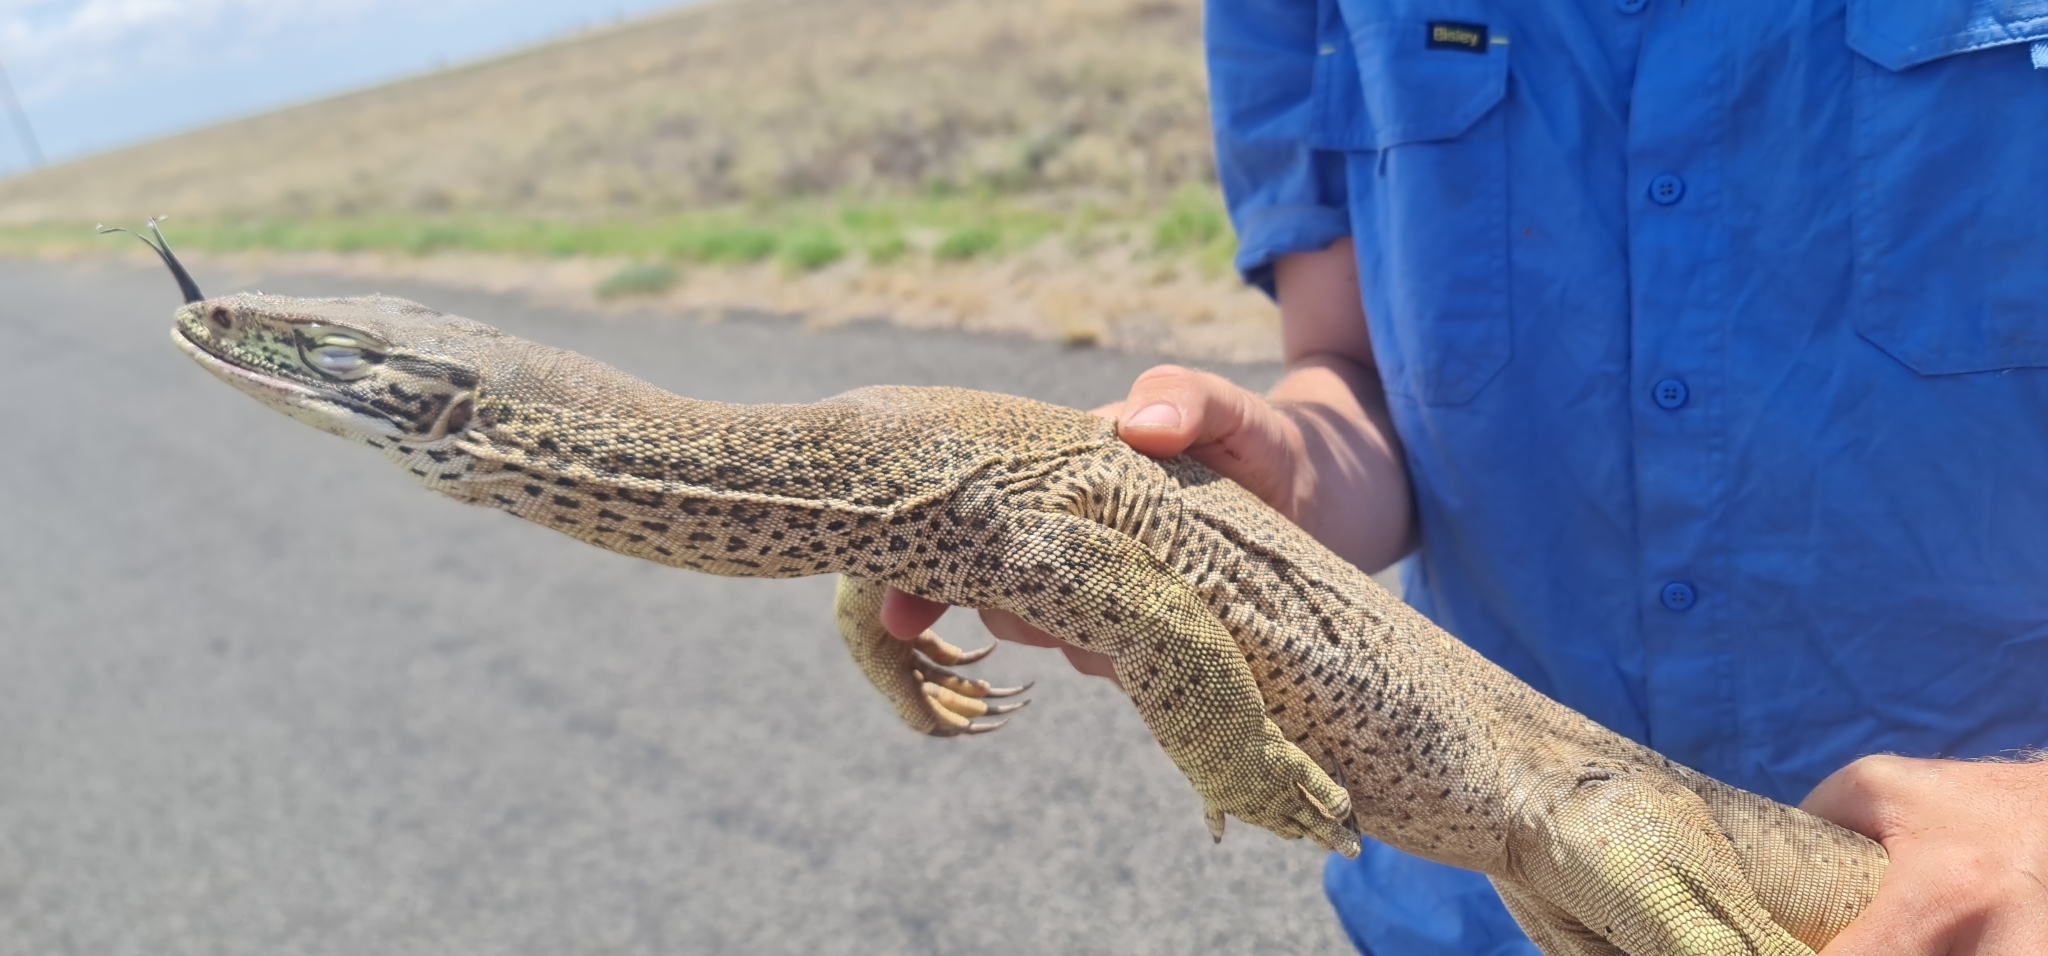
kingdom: Animalia
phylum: Chordata
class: Squamata
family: Varanidae
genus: Varanus
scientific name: Varanus panoptes
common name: Yellow-spotted monitor
